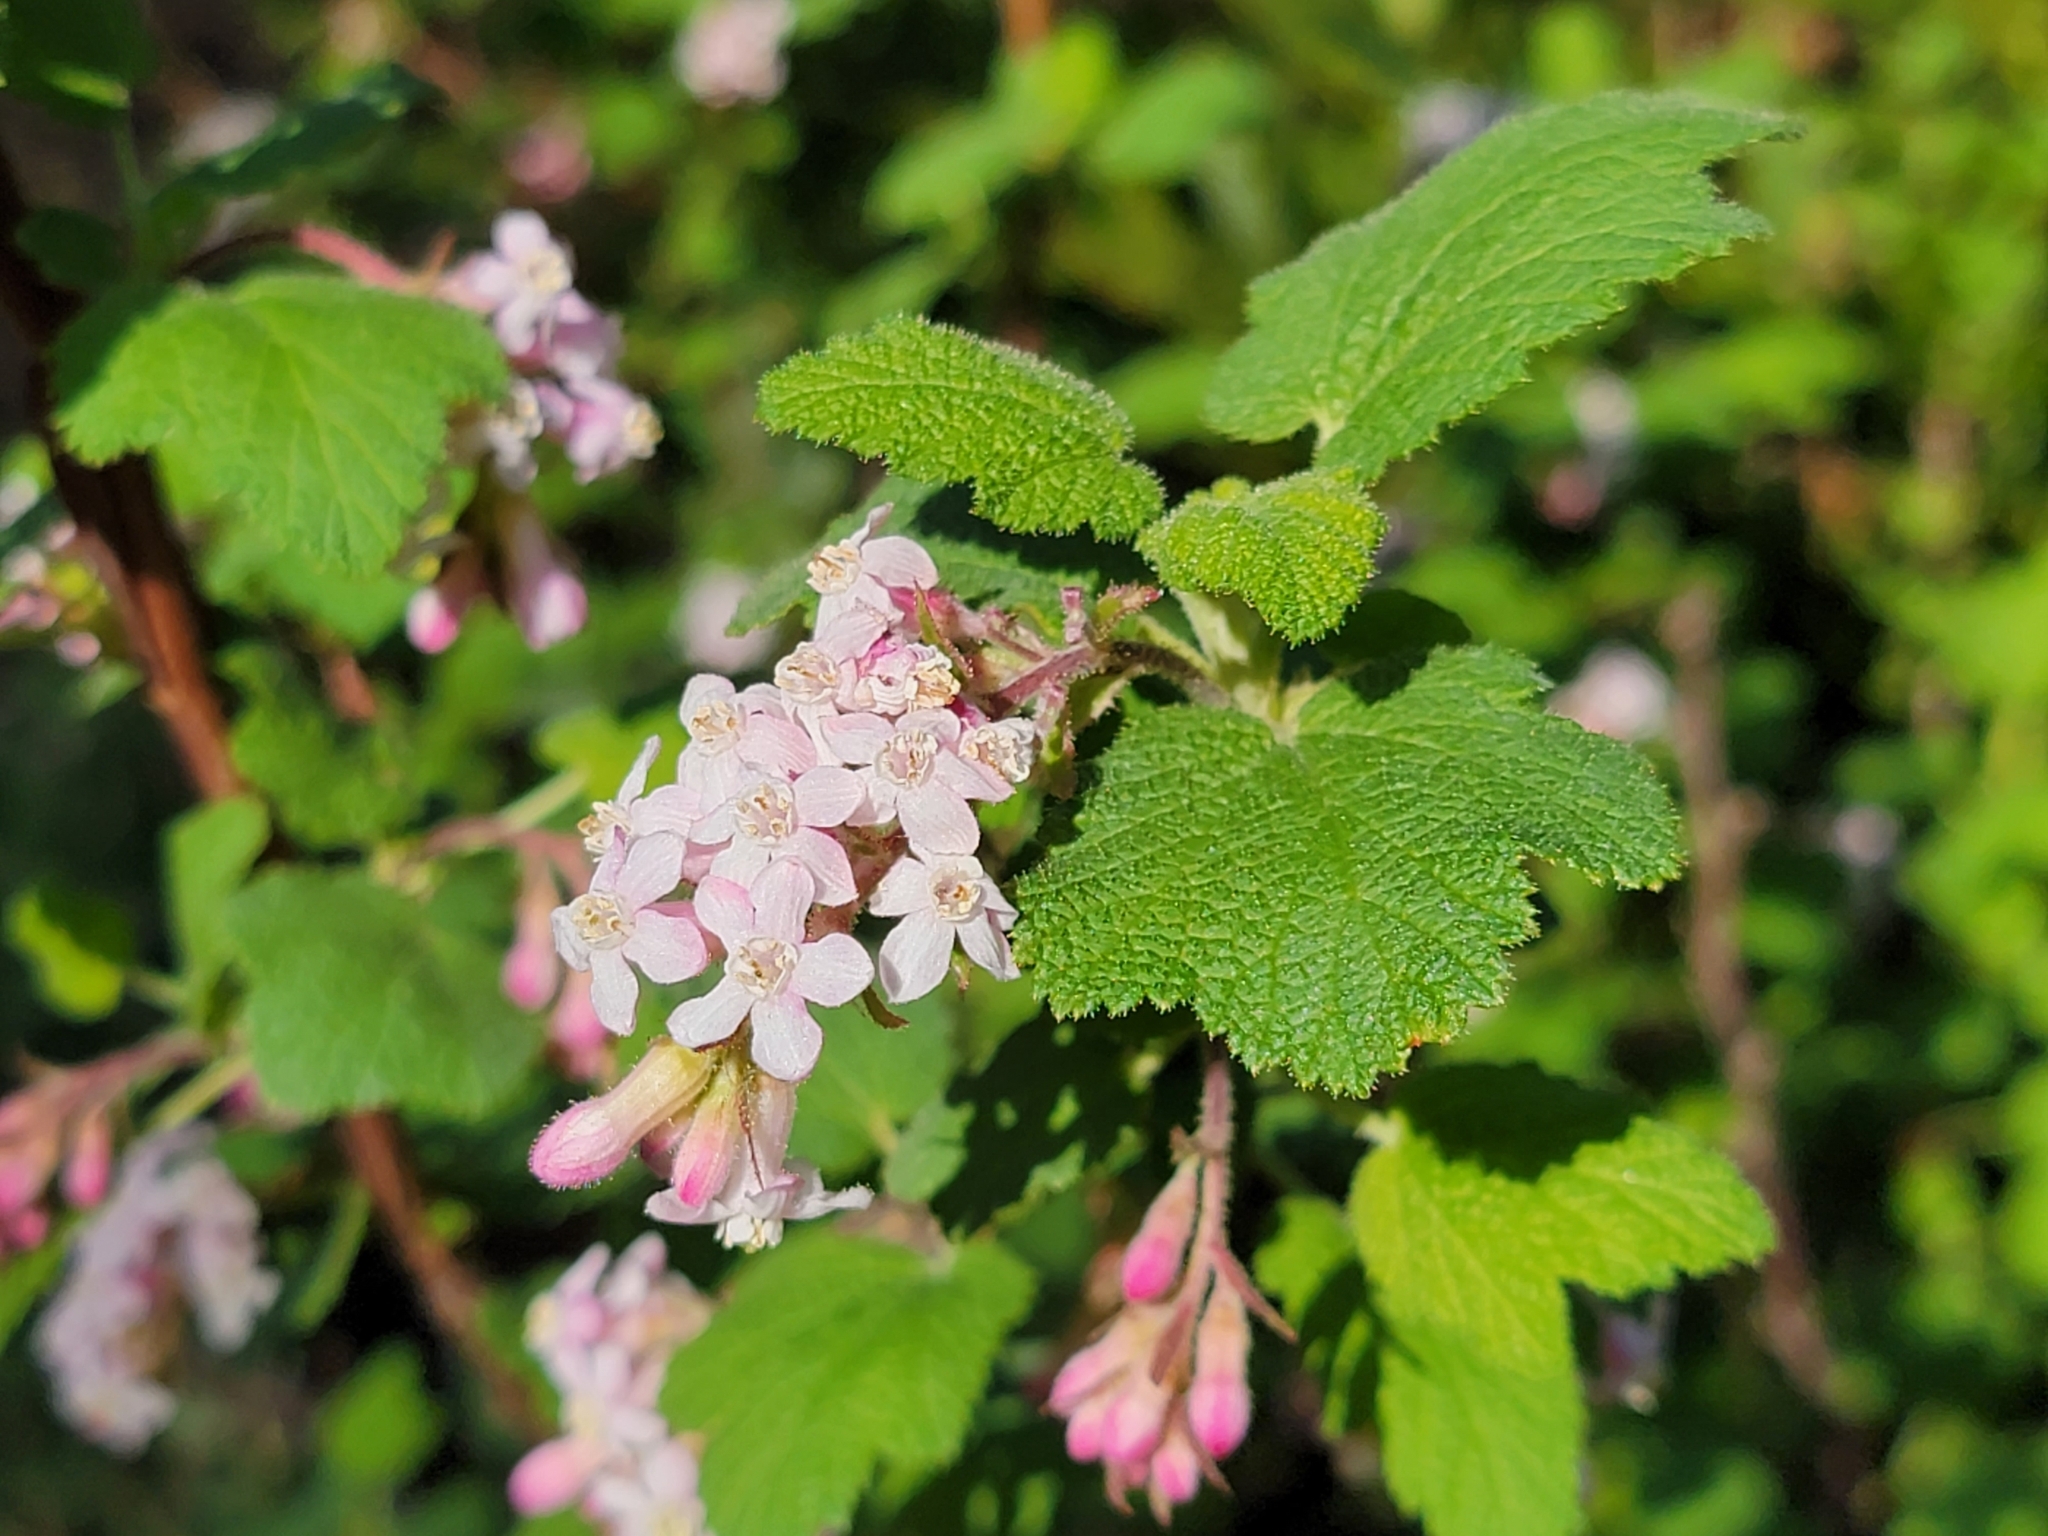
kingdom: Plantae
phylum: Tracheophyta
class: Magnoliopsida
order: Saxifragales
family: Grossulariaceae
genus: Ribes
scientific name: Ribes malvaceum
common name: Chaparral currant
